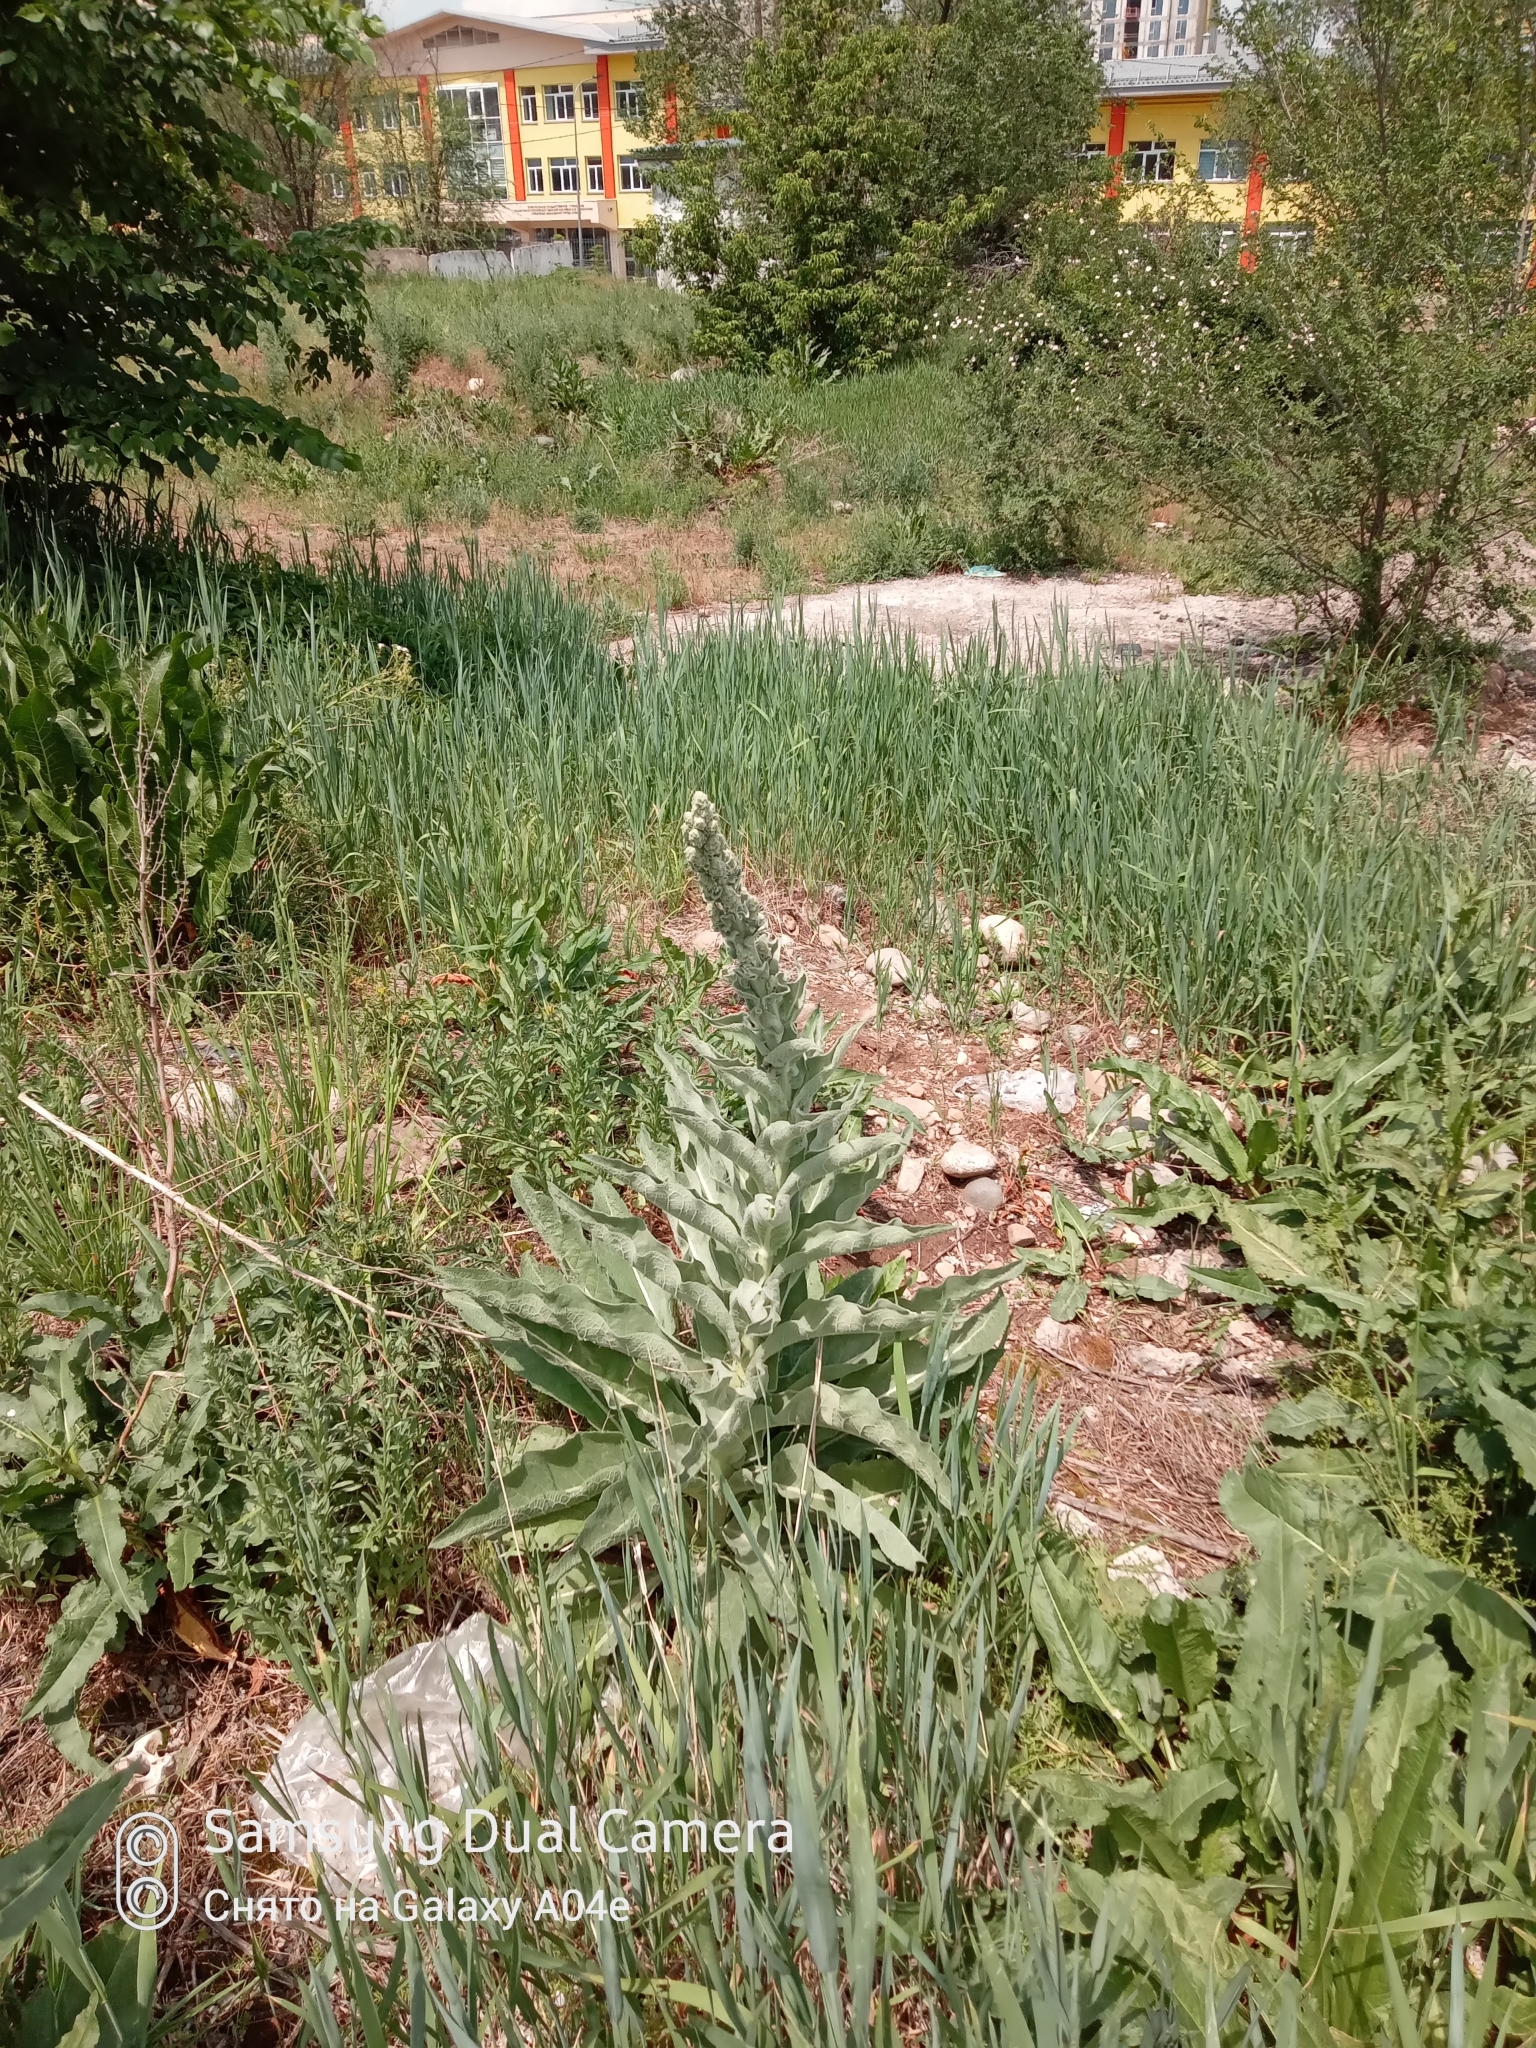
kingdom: Plantae
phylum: Tracheophyta
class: Magnoliopsida
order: Lamiales
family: Scrophulariaceae
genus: Verbascum
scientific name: Verbascum songaricum
